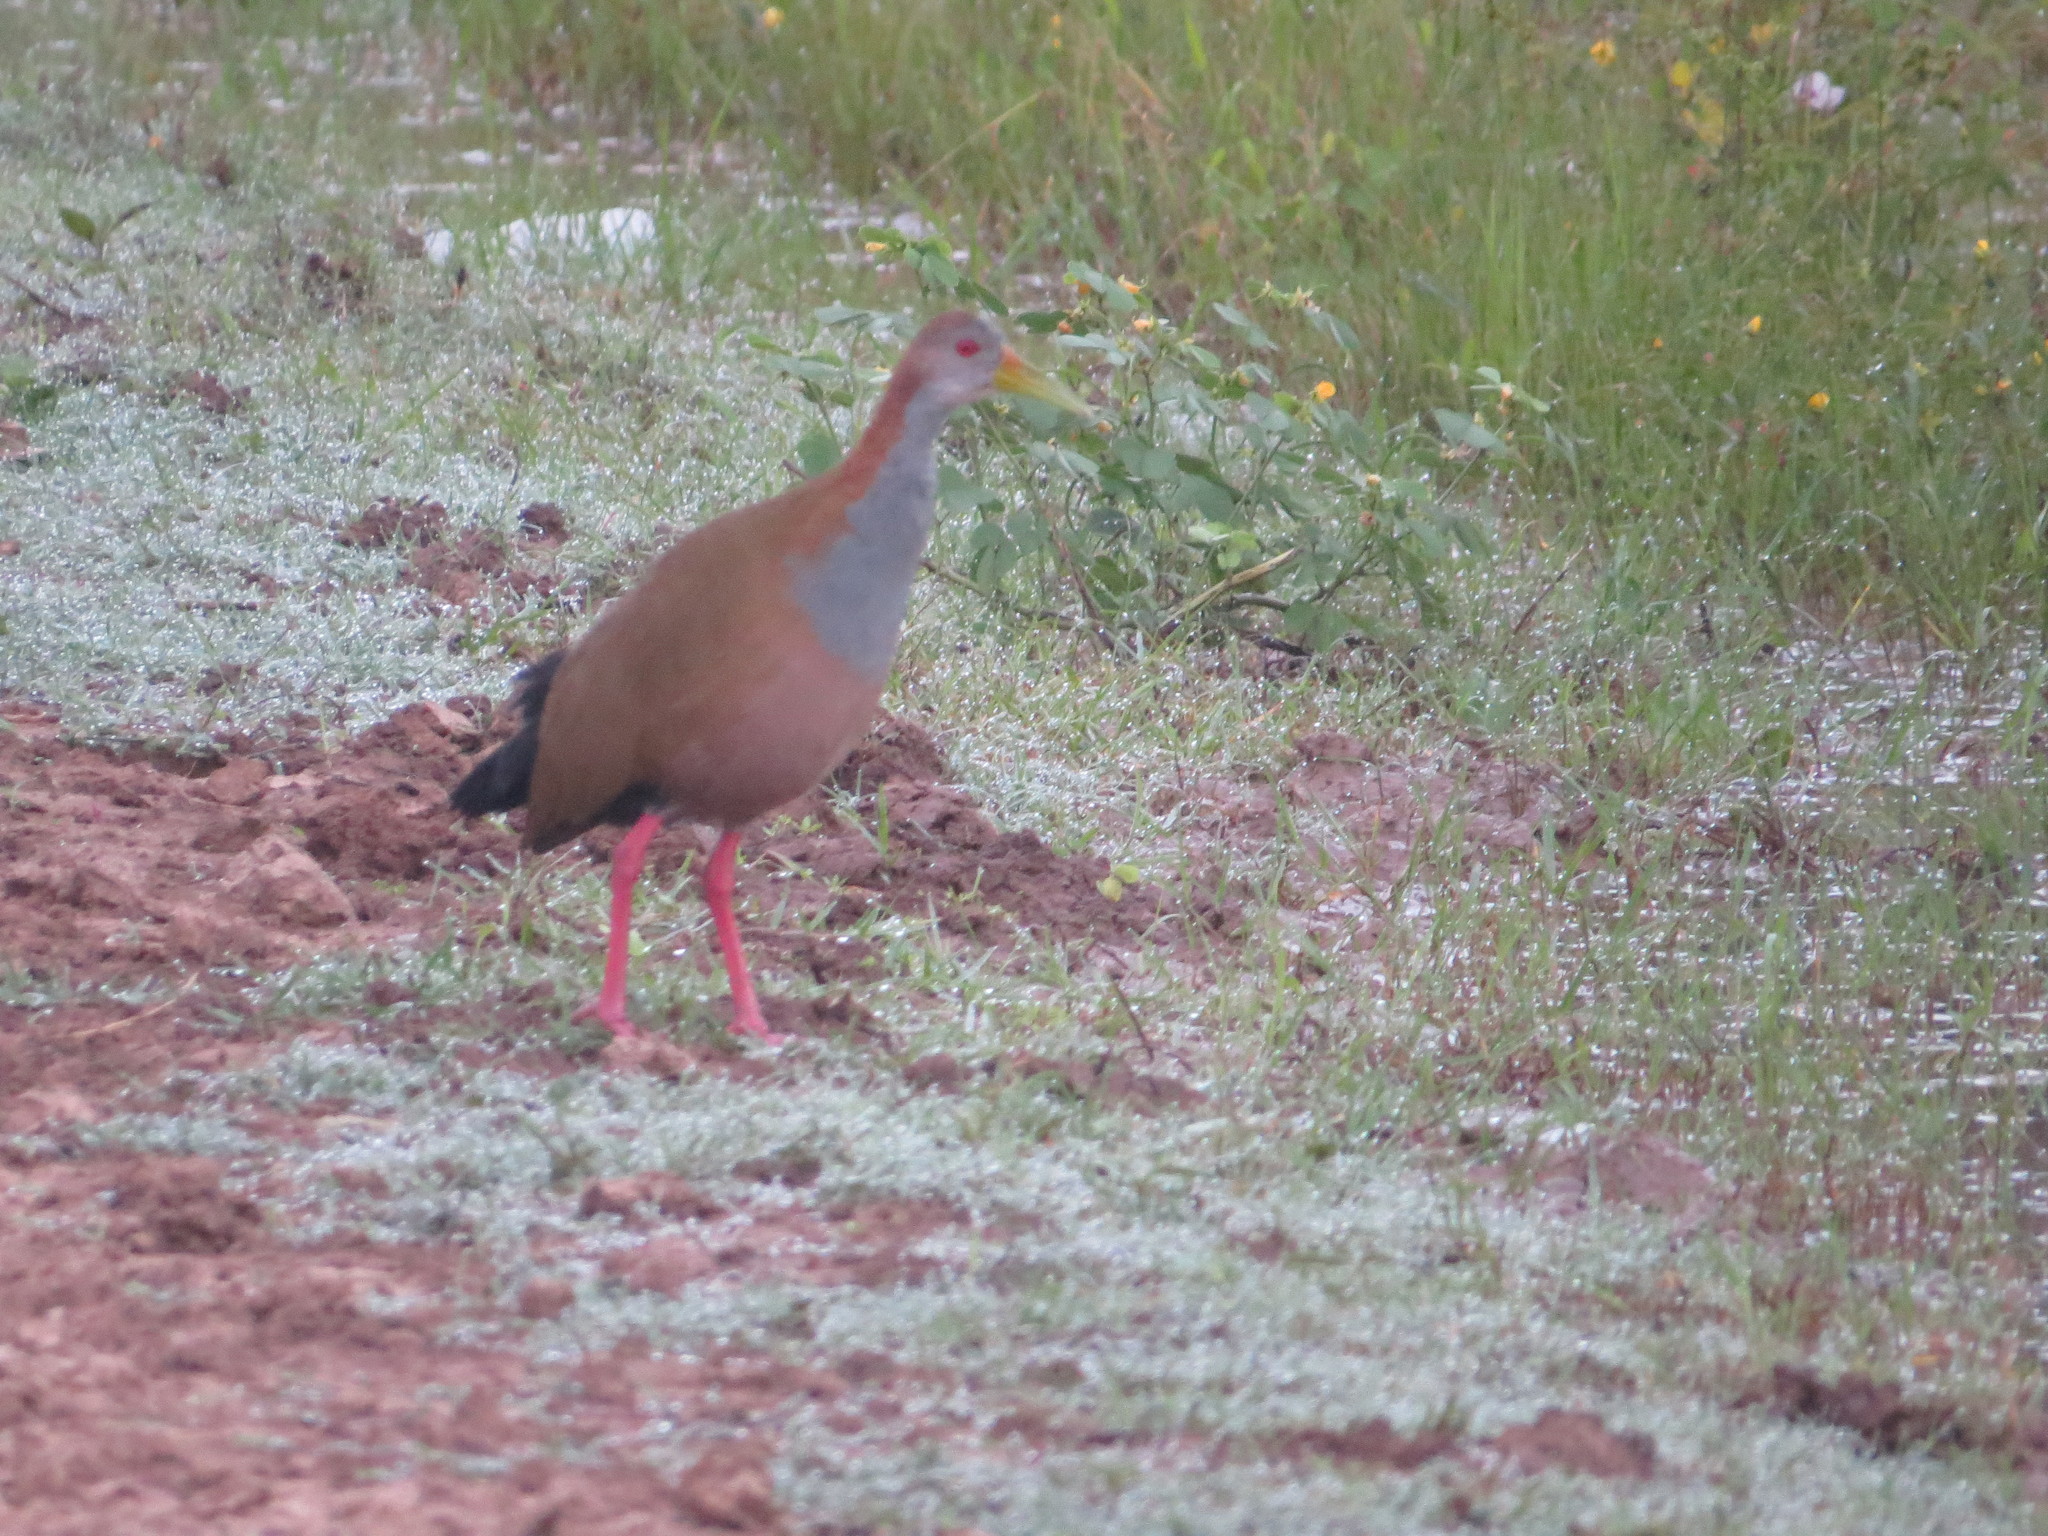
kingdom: Animalia
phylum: Chordata
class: Aves
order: Gruiformes
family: Rallidae
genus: Aramides
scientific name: Aramides ypecaha
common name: Giant wood rail
